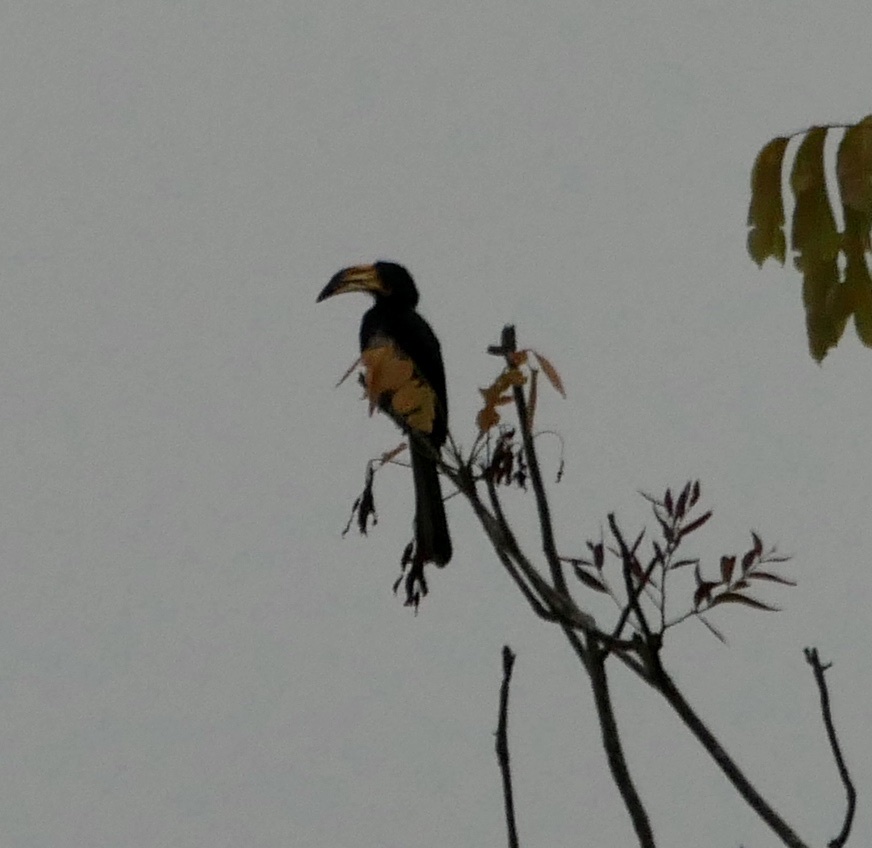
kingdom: Animalia
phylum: Chordata
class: Aves
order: Bucerotiformes
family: Bucerotidae
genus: Lophoceros
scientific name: Lophoceros fasciatus
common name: African pied hornbill
